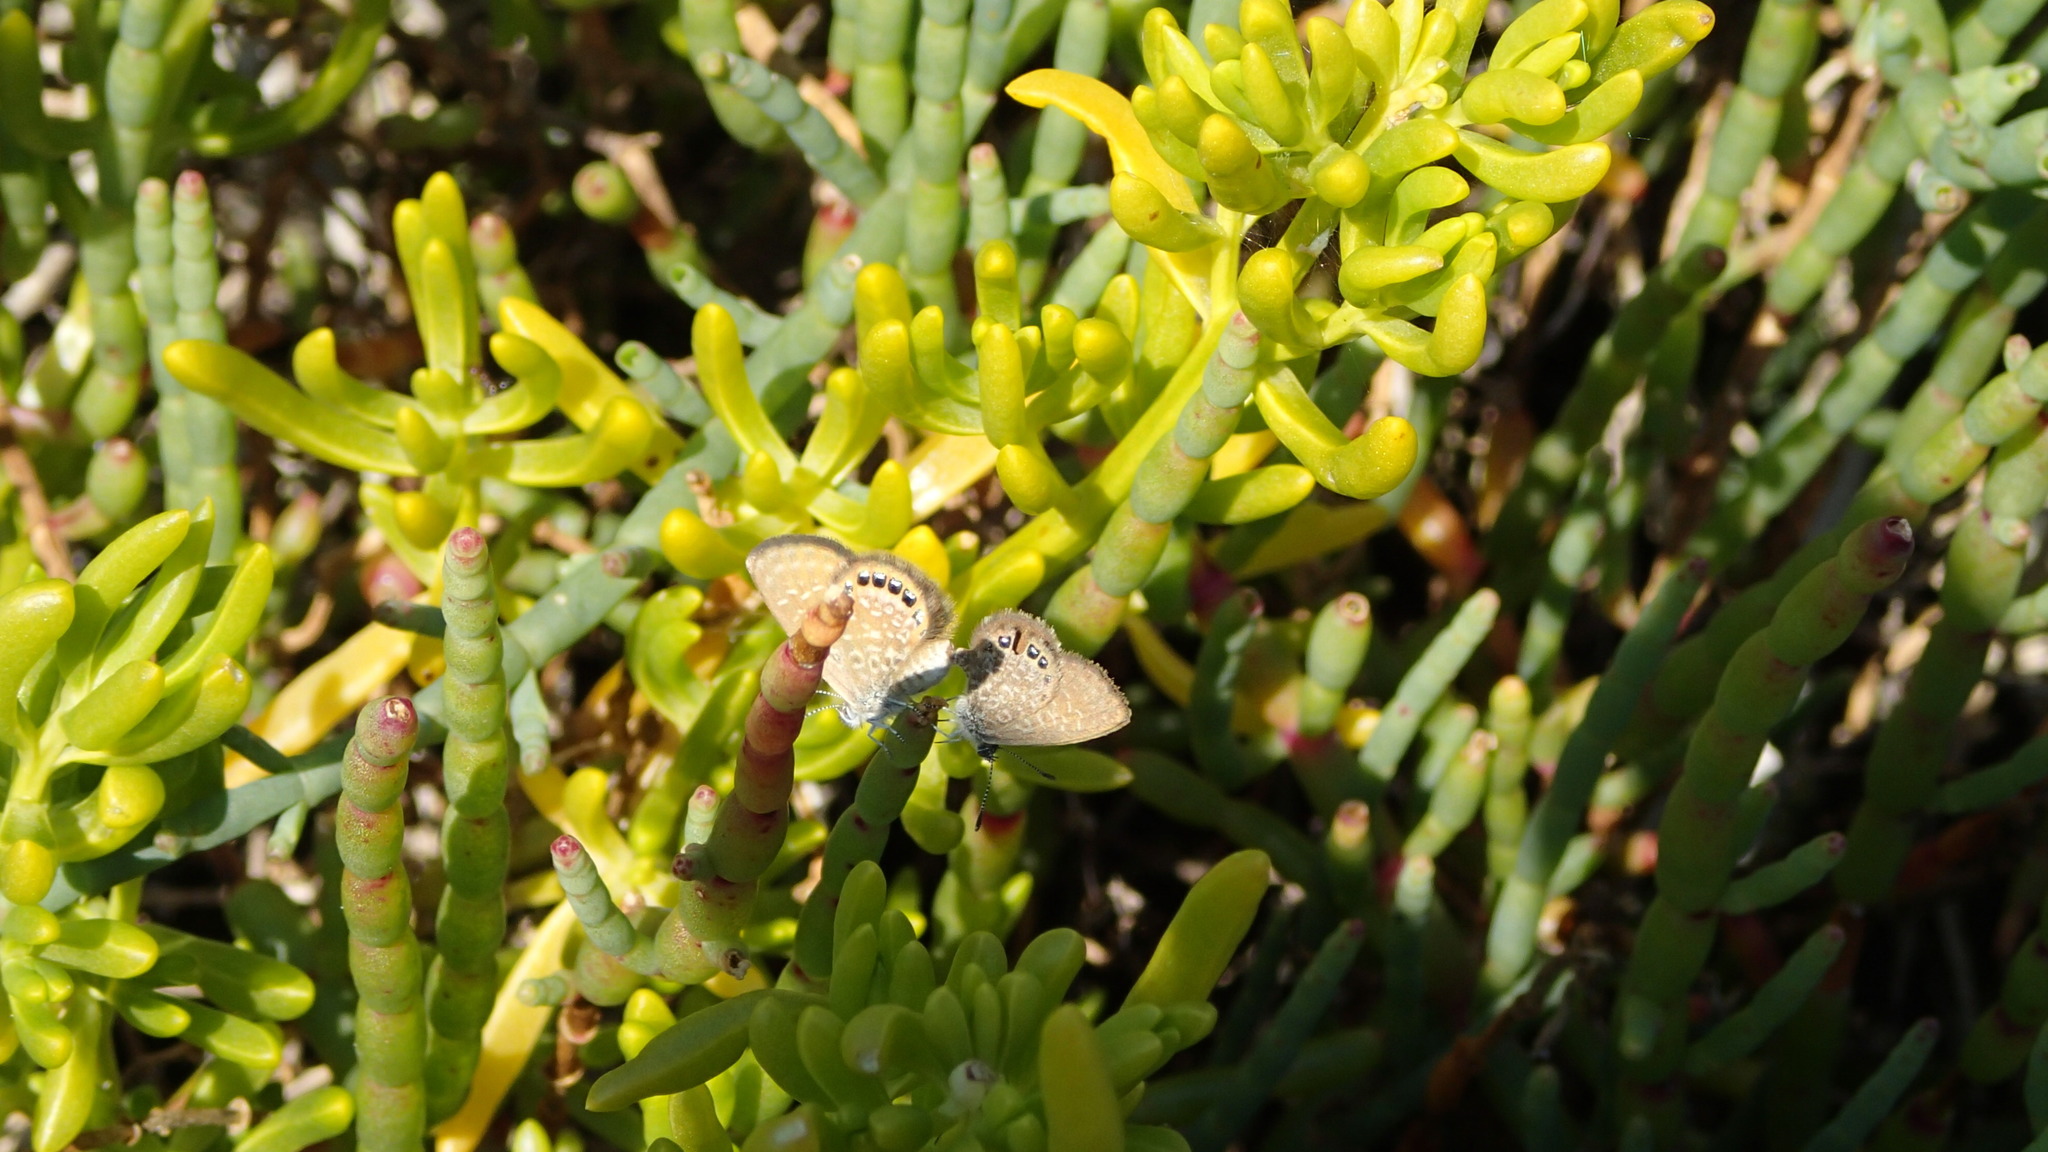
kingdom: Animalia
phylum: Arthropoda
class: Insecta
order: Lepidoptera
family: Lycaenidae
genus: Brephidium
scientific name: Brephidium isophthalma
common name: Eastern pygmy-blue
